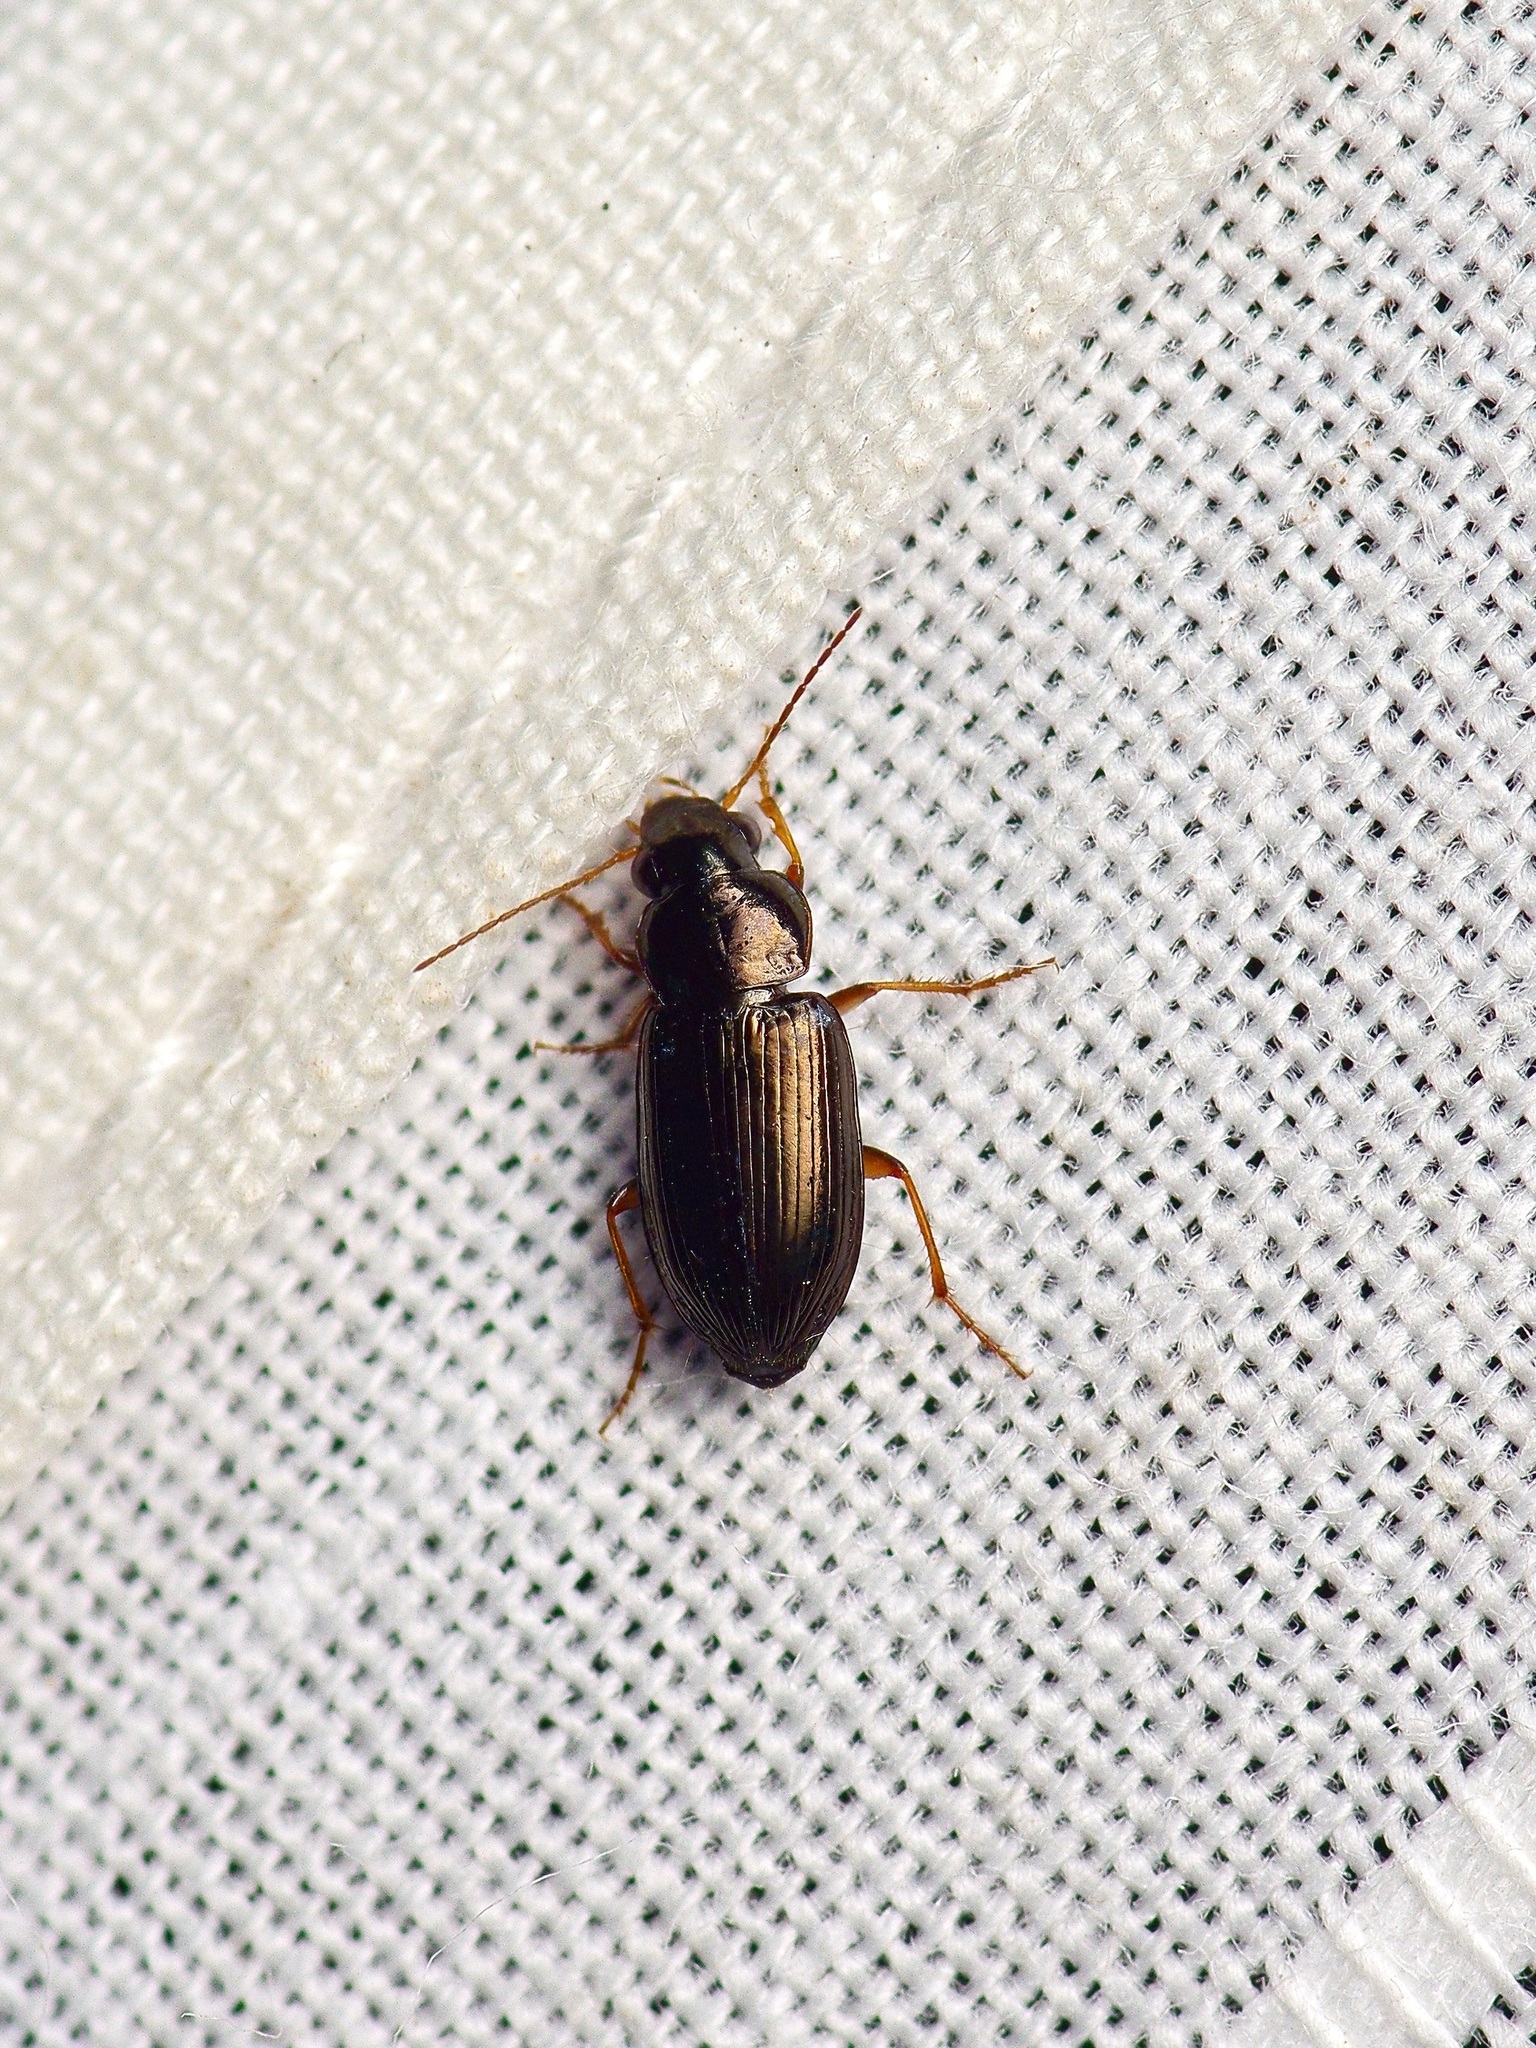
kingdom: Animalia
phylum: Arthropoda
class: Insecta
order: Coleoptera
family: Carabidae
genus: Selenophorus
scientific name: Selenophorus fatuus
